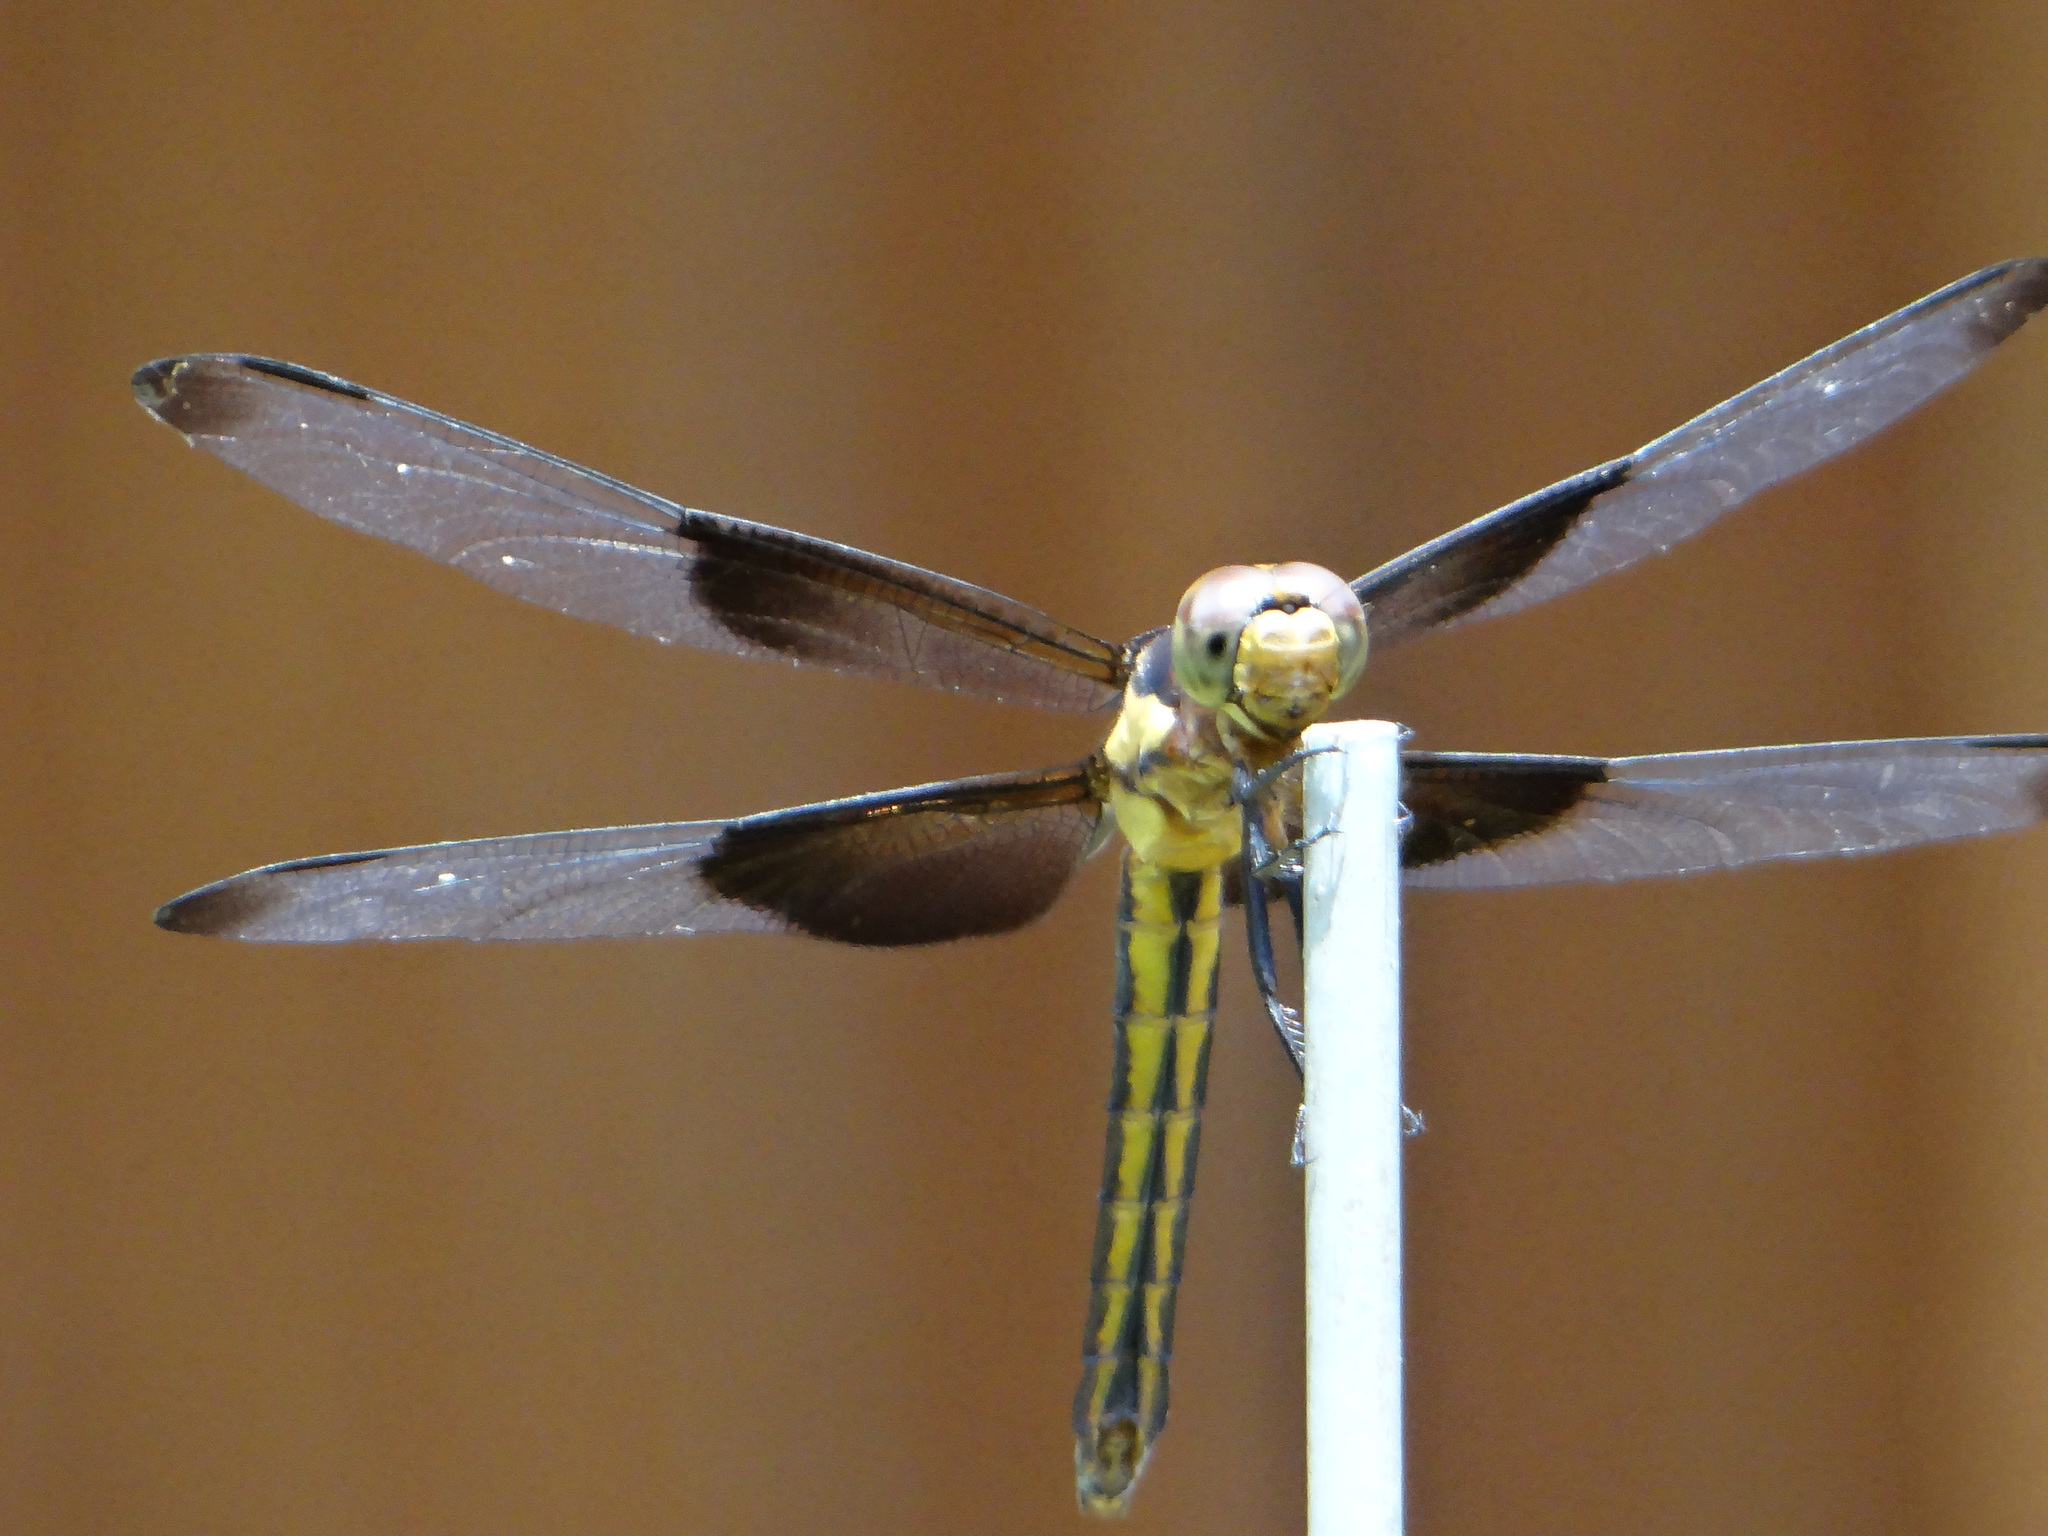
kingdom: Animalia
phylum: Arthropoda
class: Insecta
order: Odonata
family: Libellulidae
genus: Libellula
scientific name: Libellula luctuosa
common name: Widow skimmer
